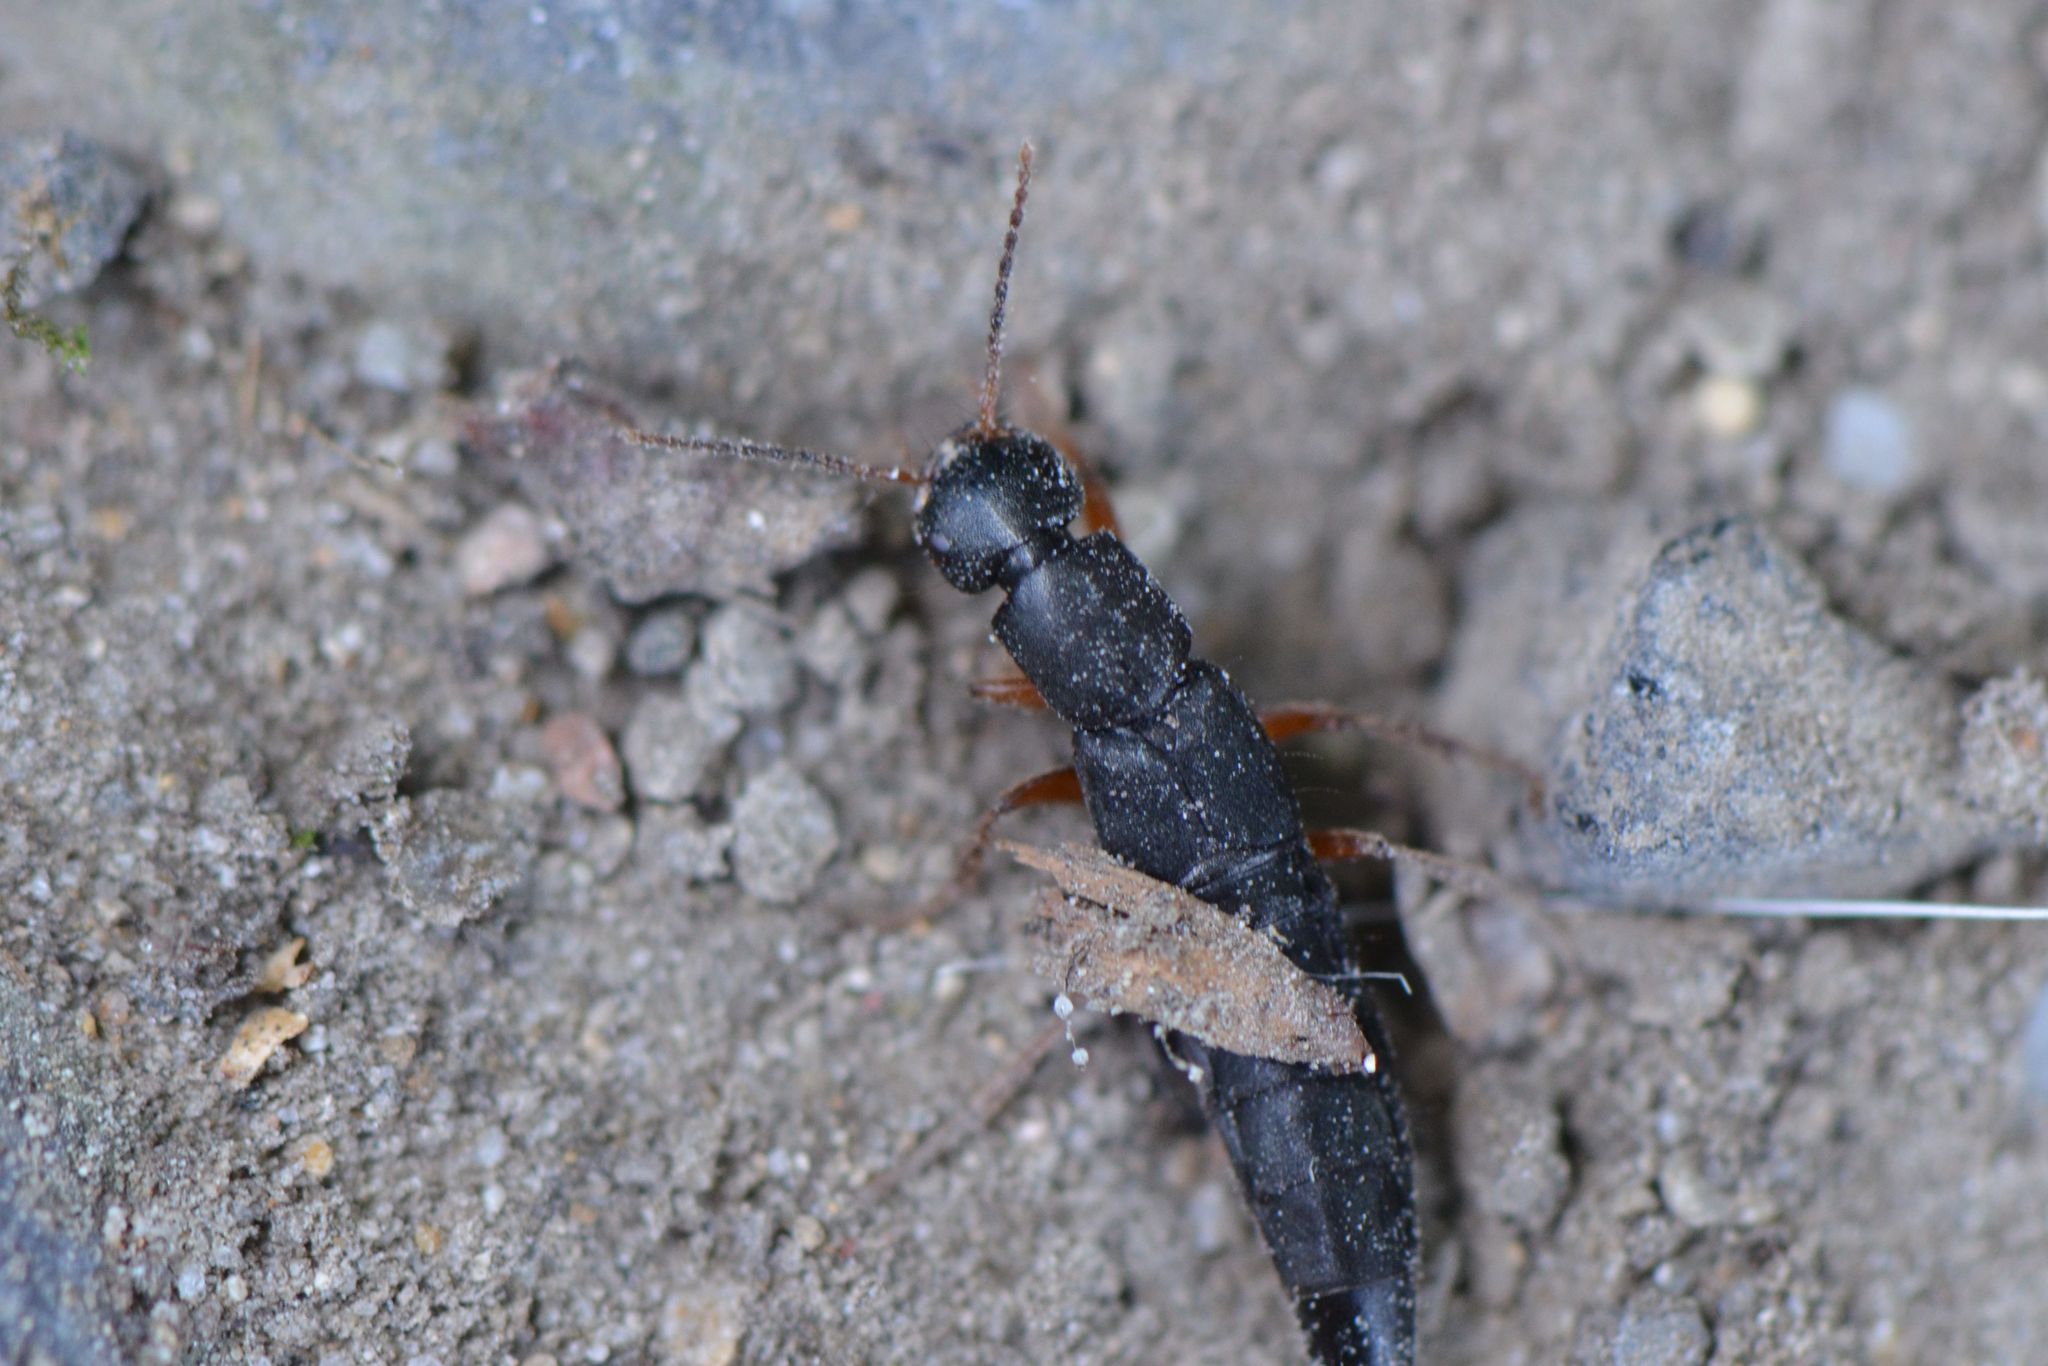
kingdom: Animalia
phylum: Arthropoda
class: Insecta
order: Coleoptera
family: Staphylinidae
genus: Tasgius
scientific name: Tasgius morsitans
